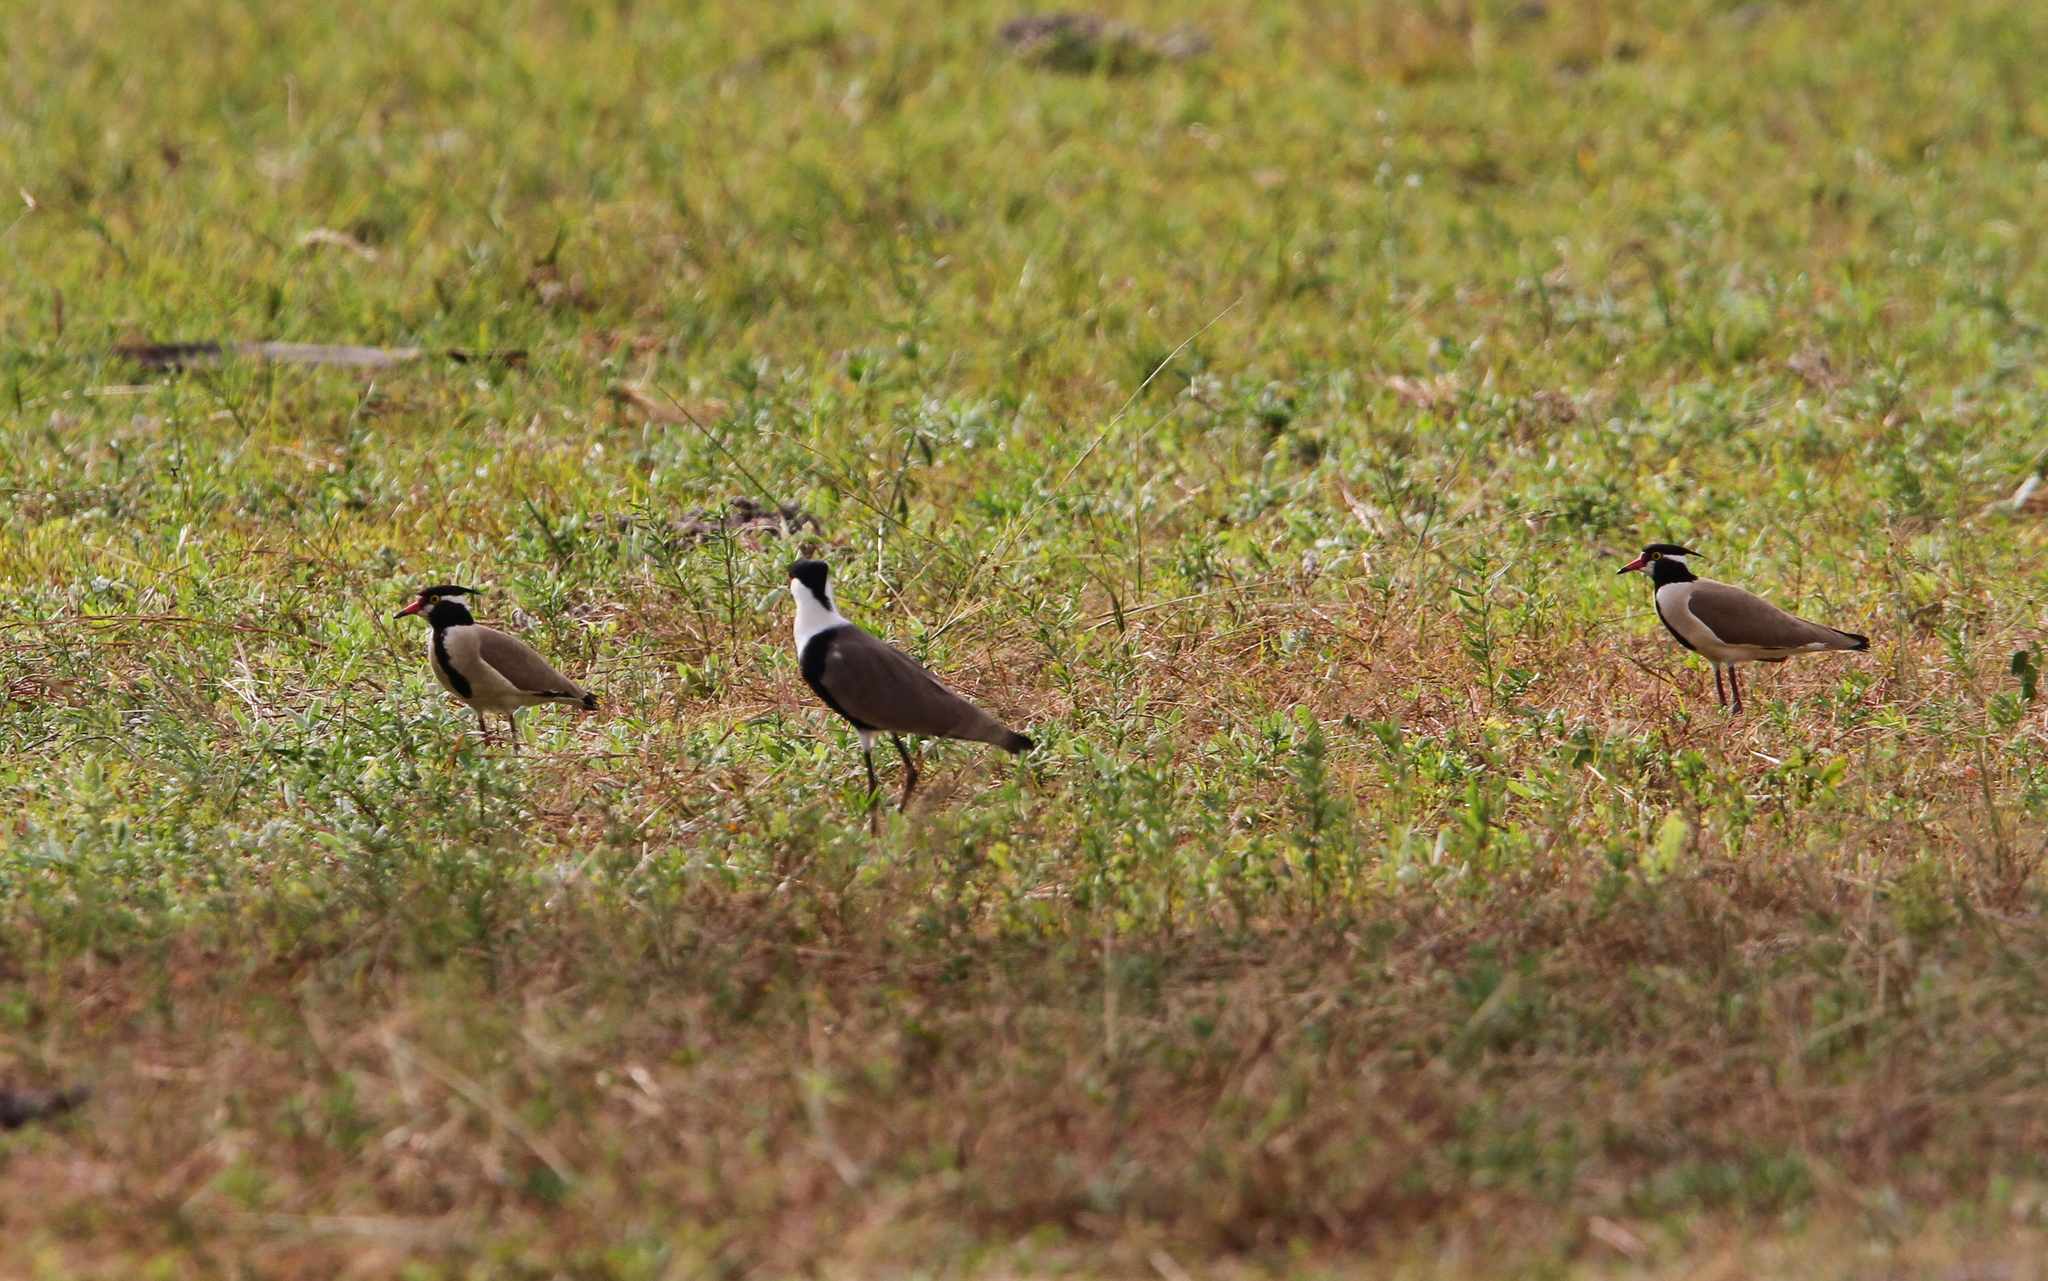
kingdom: Animalia
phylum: Chordata
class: Aves
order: Charadriiformes
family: Charadriidae
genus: Vanellus
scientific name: Vanellus tectus
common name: Black-headed lapwing
